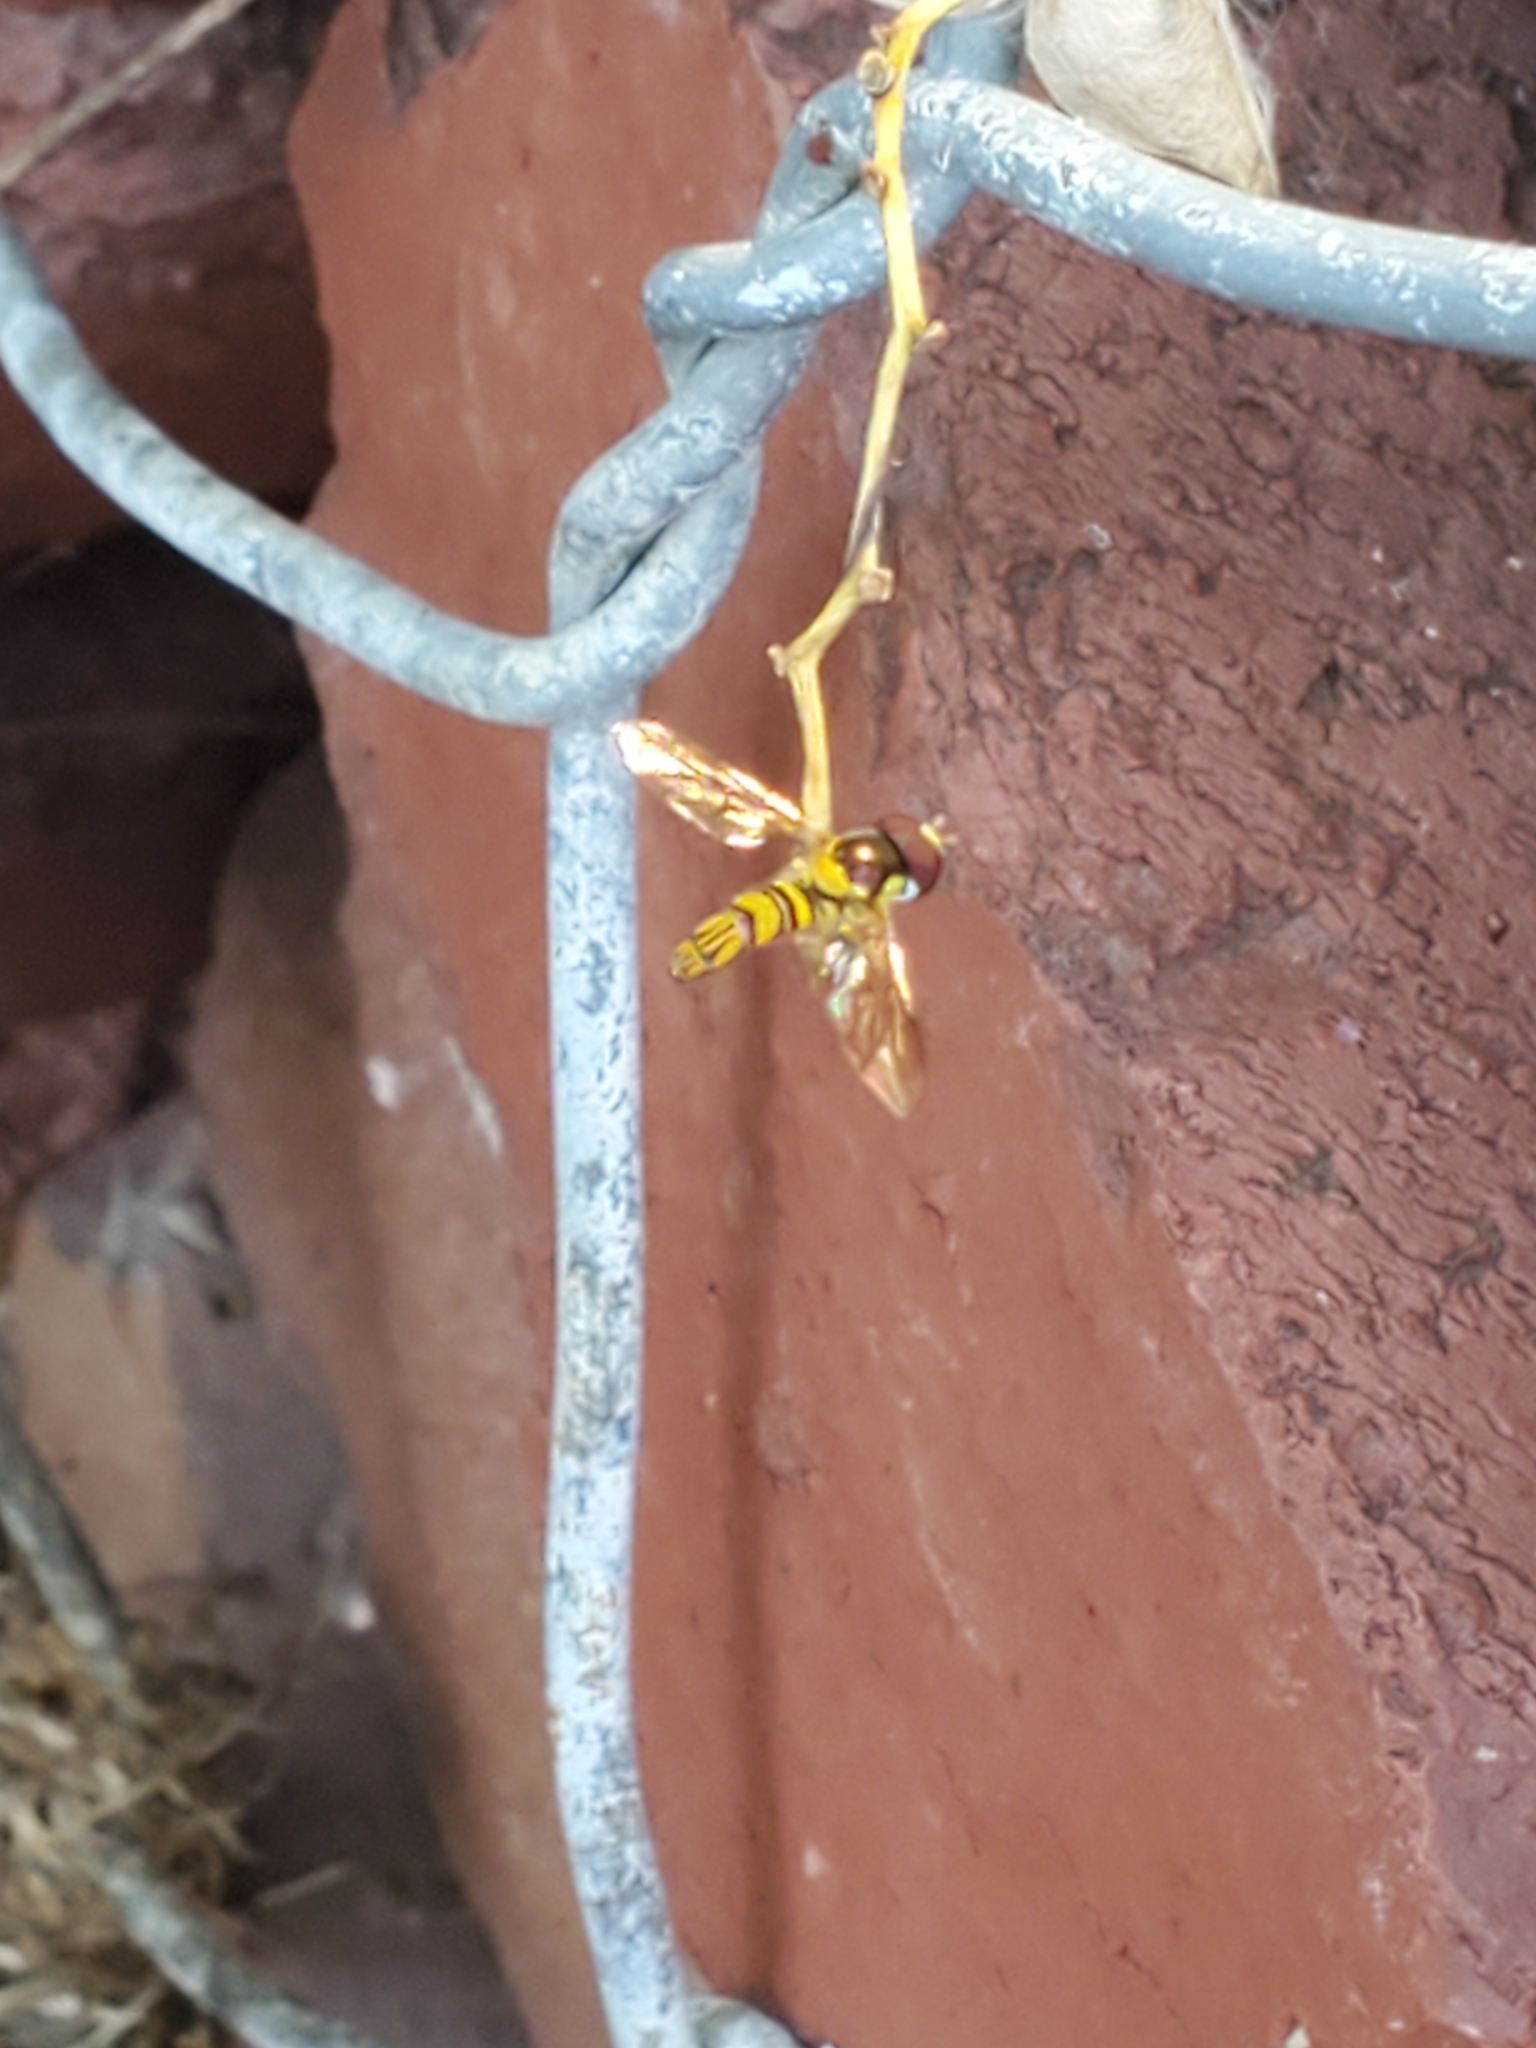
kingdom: Animalia
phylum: Arthropoda
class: Insecta
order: Diptera
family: Syrphidae
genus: Allograpta
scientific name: Allograpta obliqua
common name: Common oblique syrphid
